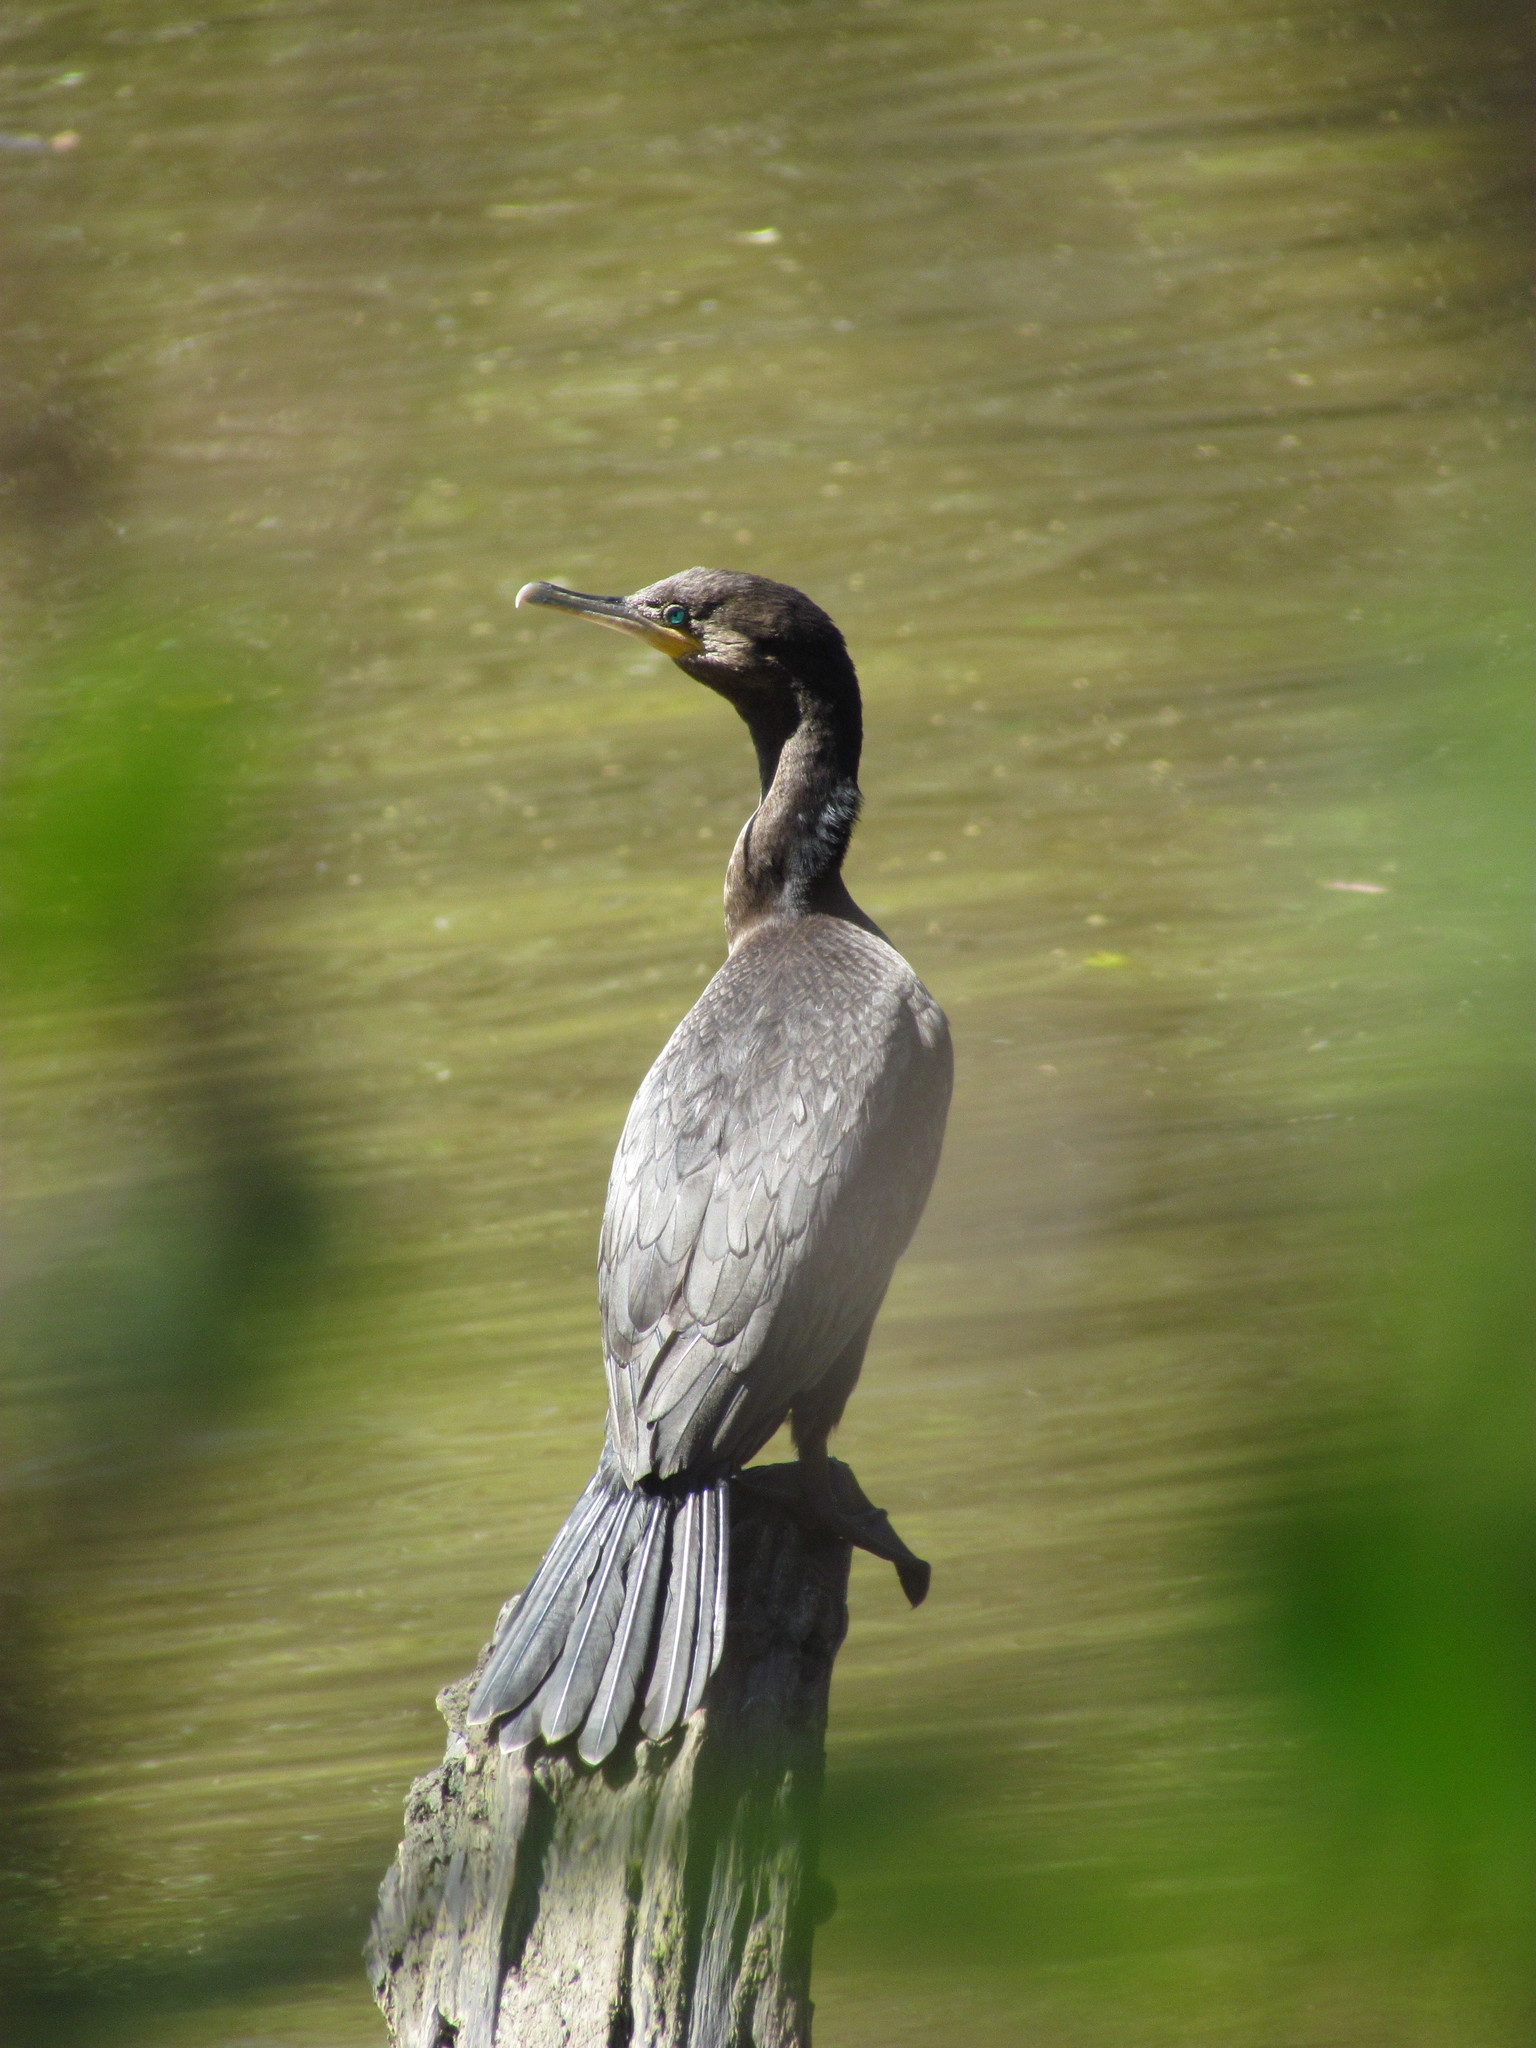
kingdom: Animalia
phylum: Chordata
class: Aves
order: Suliformes
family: Phalacrocoracidae
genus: Phalacrocorax
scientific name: Phalacrocorax brasilianus
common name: Neotropic cormorant
